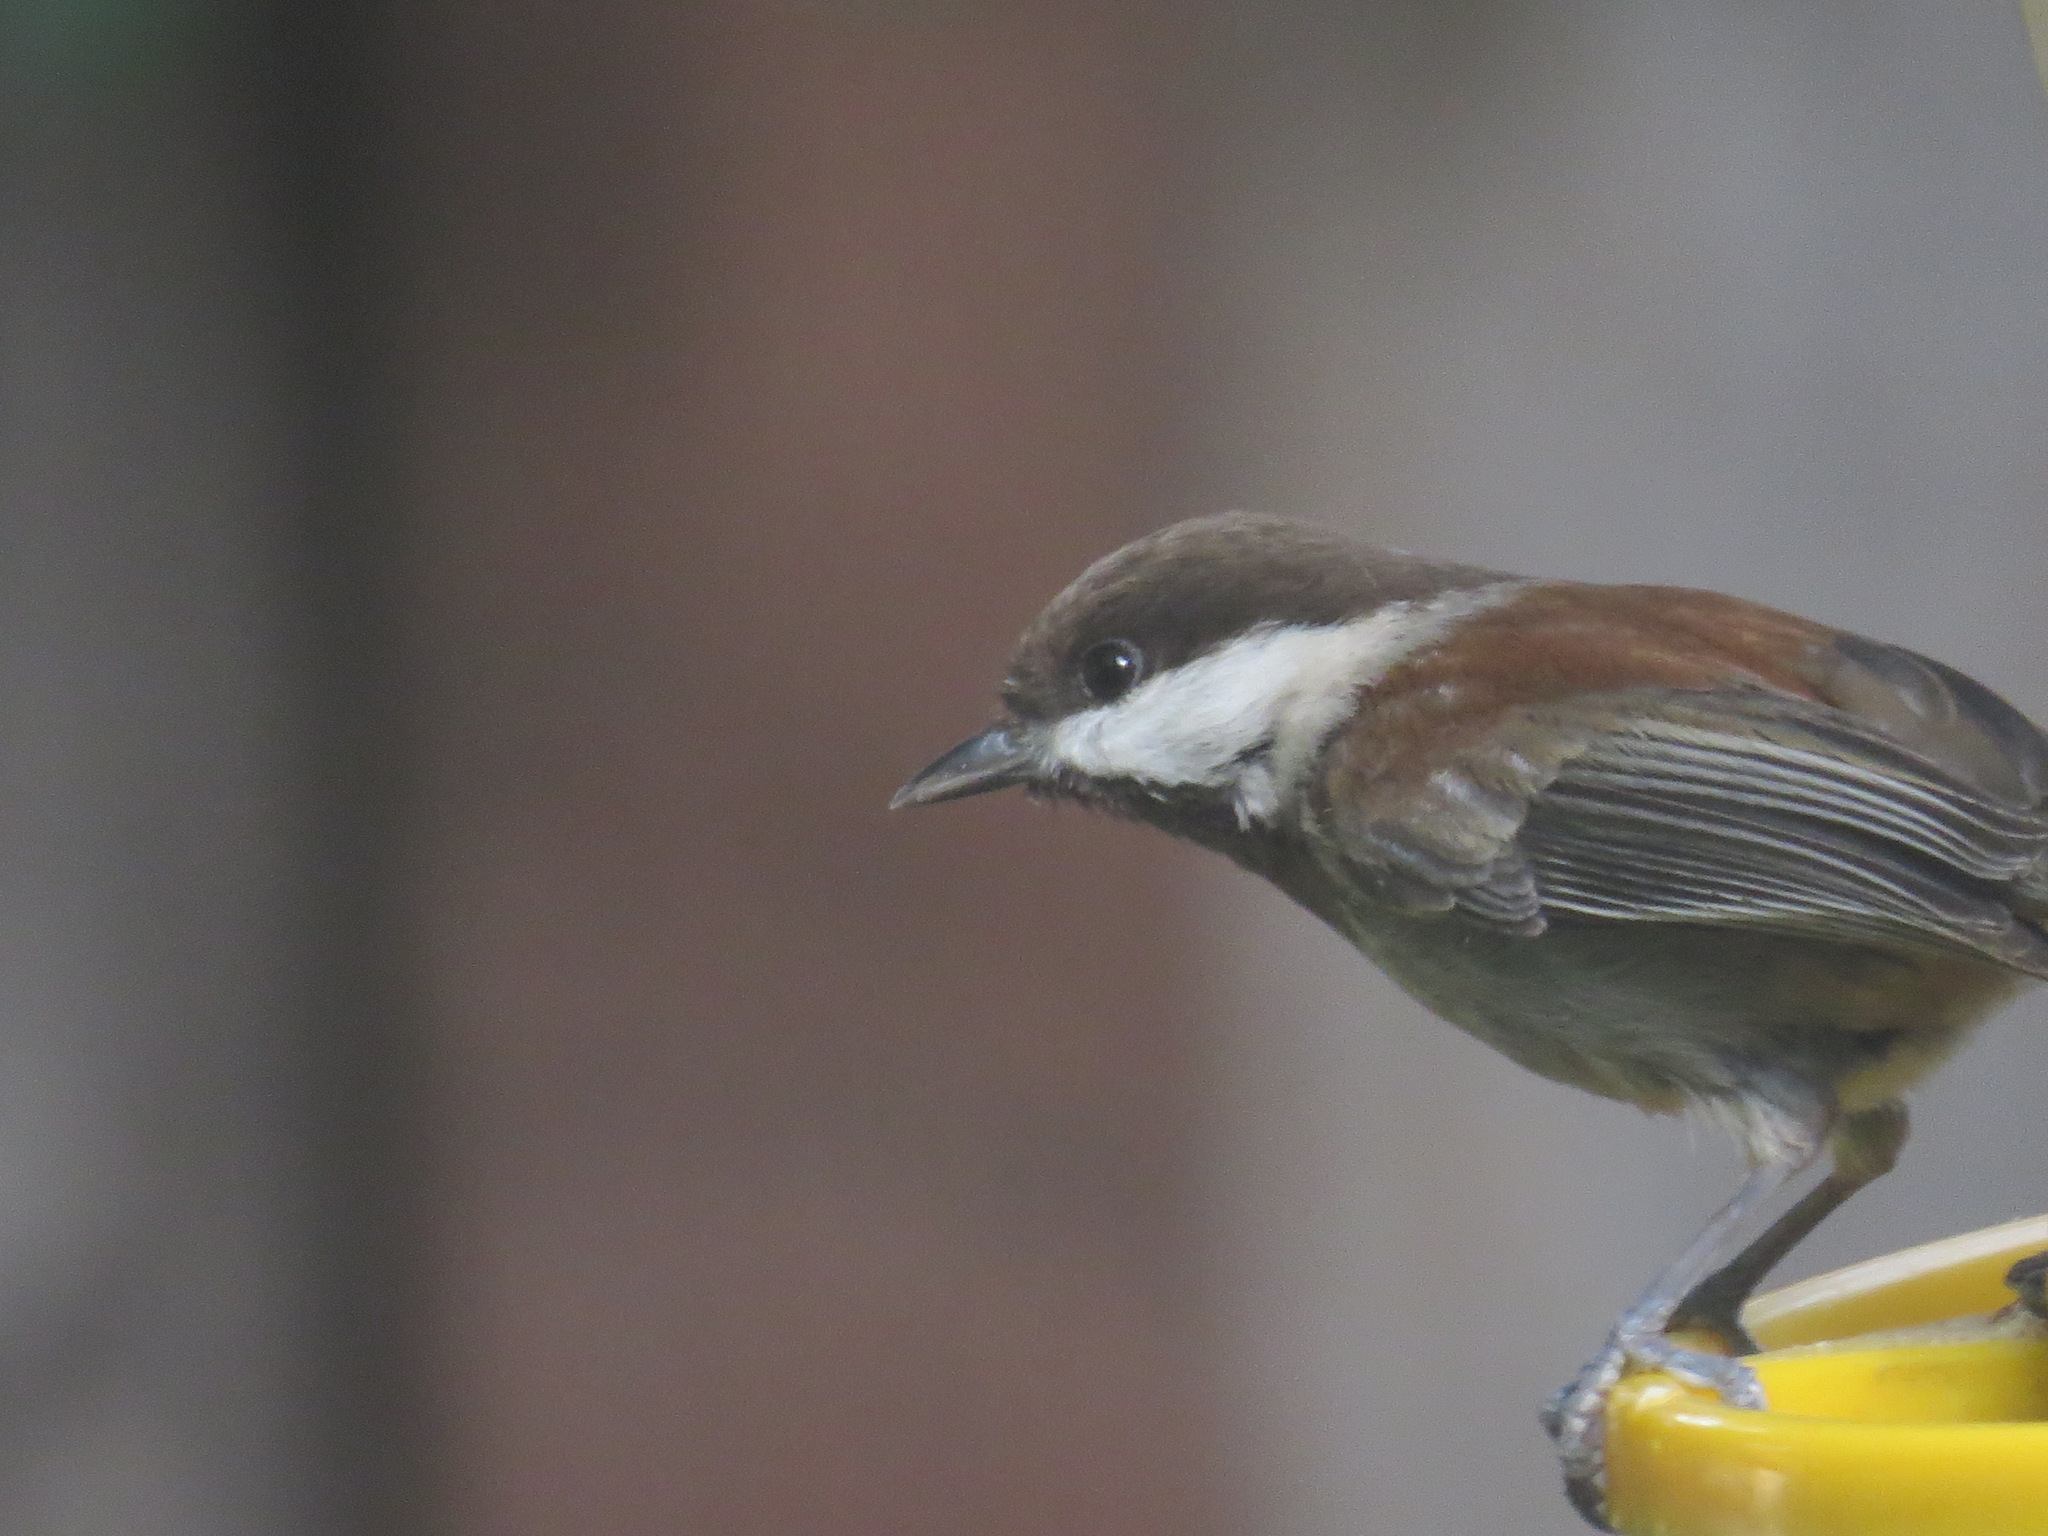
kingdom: Animalia
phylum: Chordata
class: Aves
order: Passeriformes
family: Paridae
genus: Poecile
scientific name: Poecile rufescens
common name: Chestnut-backed chickadee
